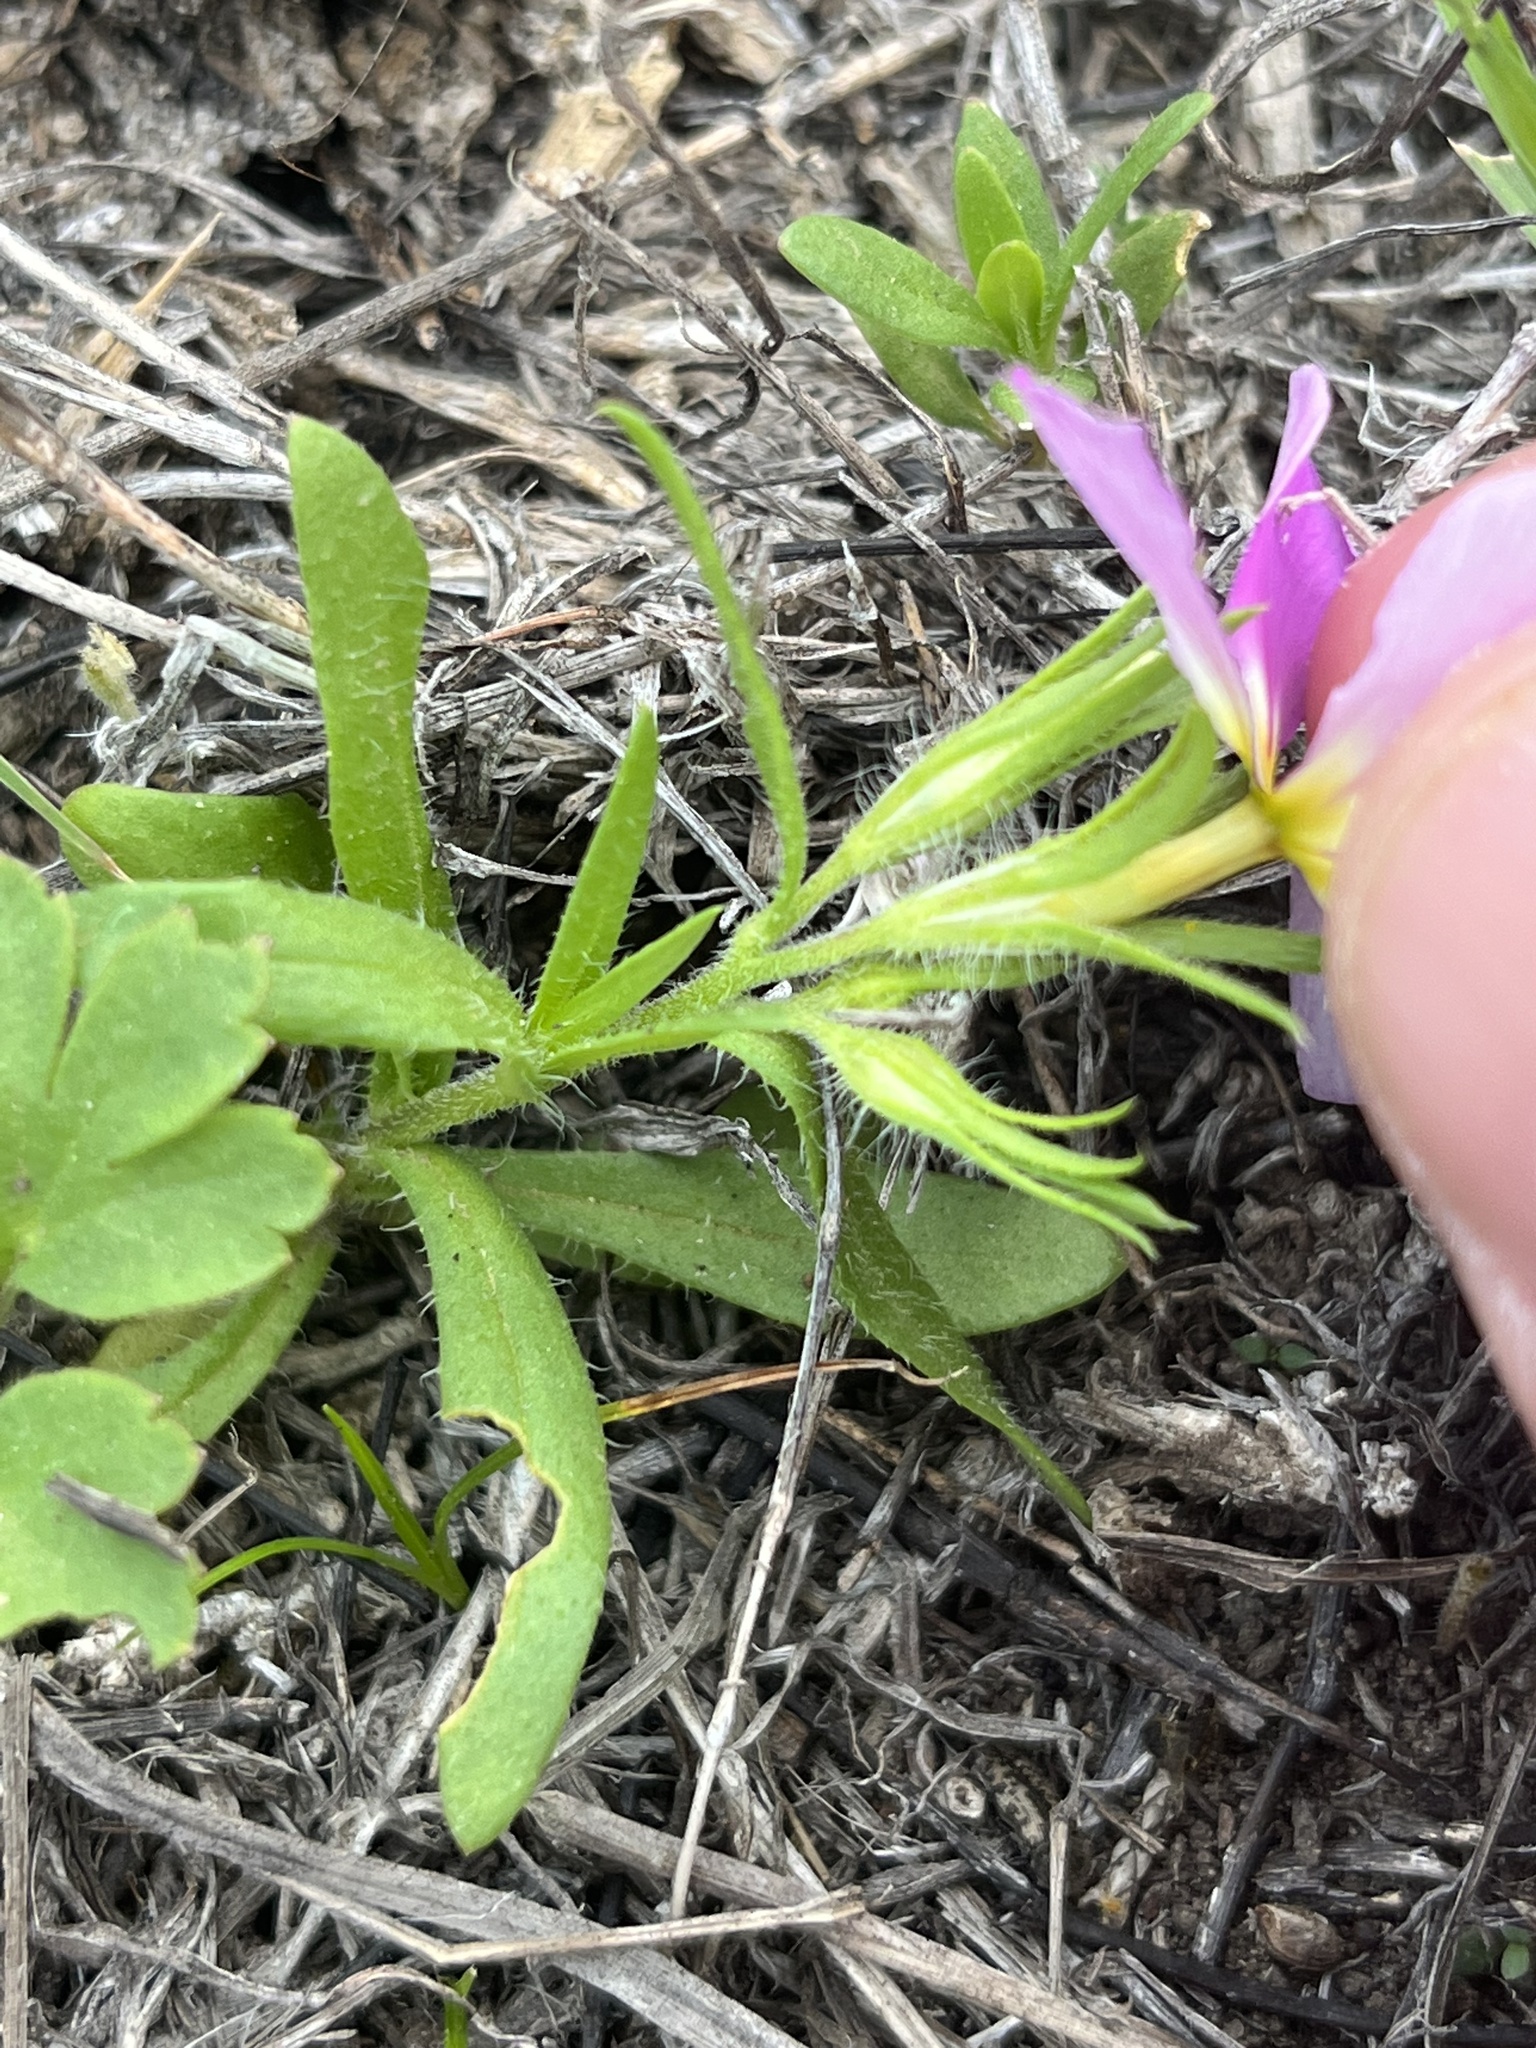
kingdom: Plantae
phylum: Tracheophyta
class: Magnoliopsida
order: Ericales
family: Polemoniaceae
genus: Phlox
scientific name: Phlox roemeriana
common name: Roemer's phlox
